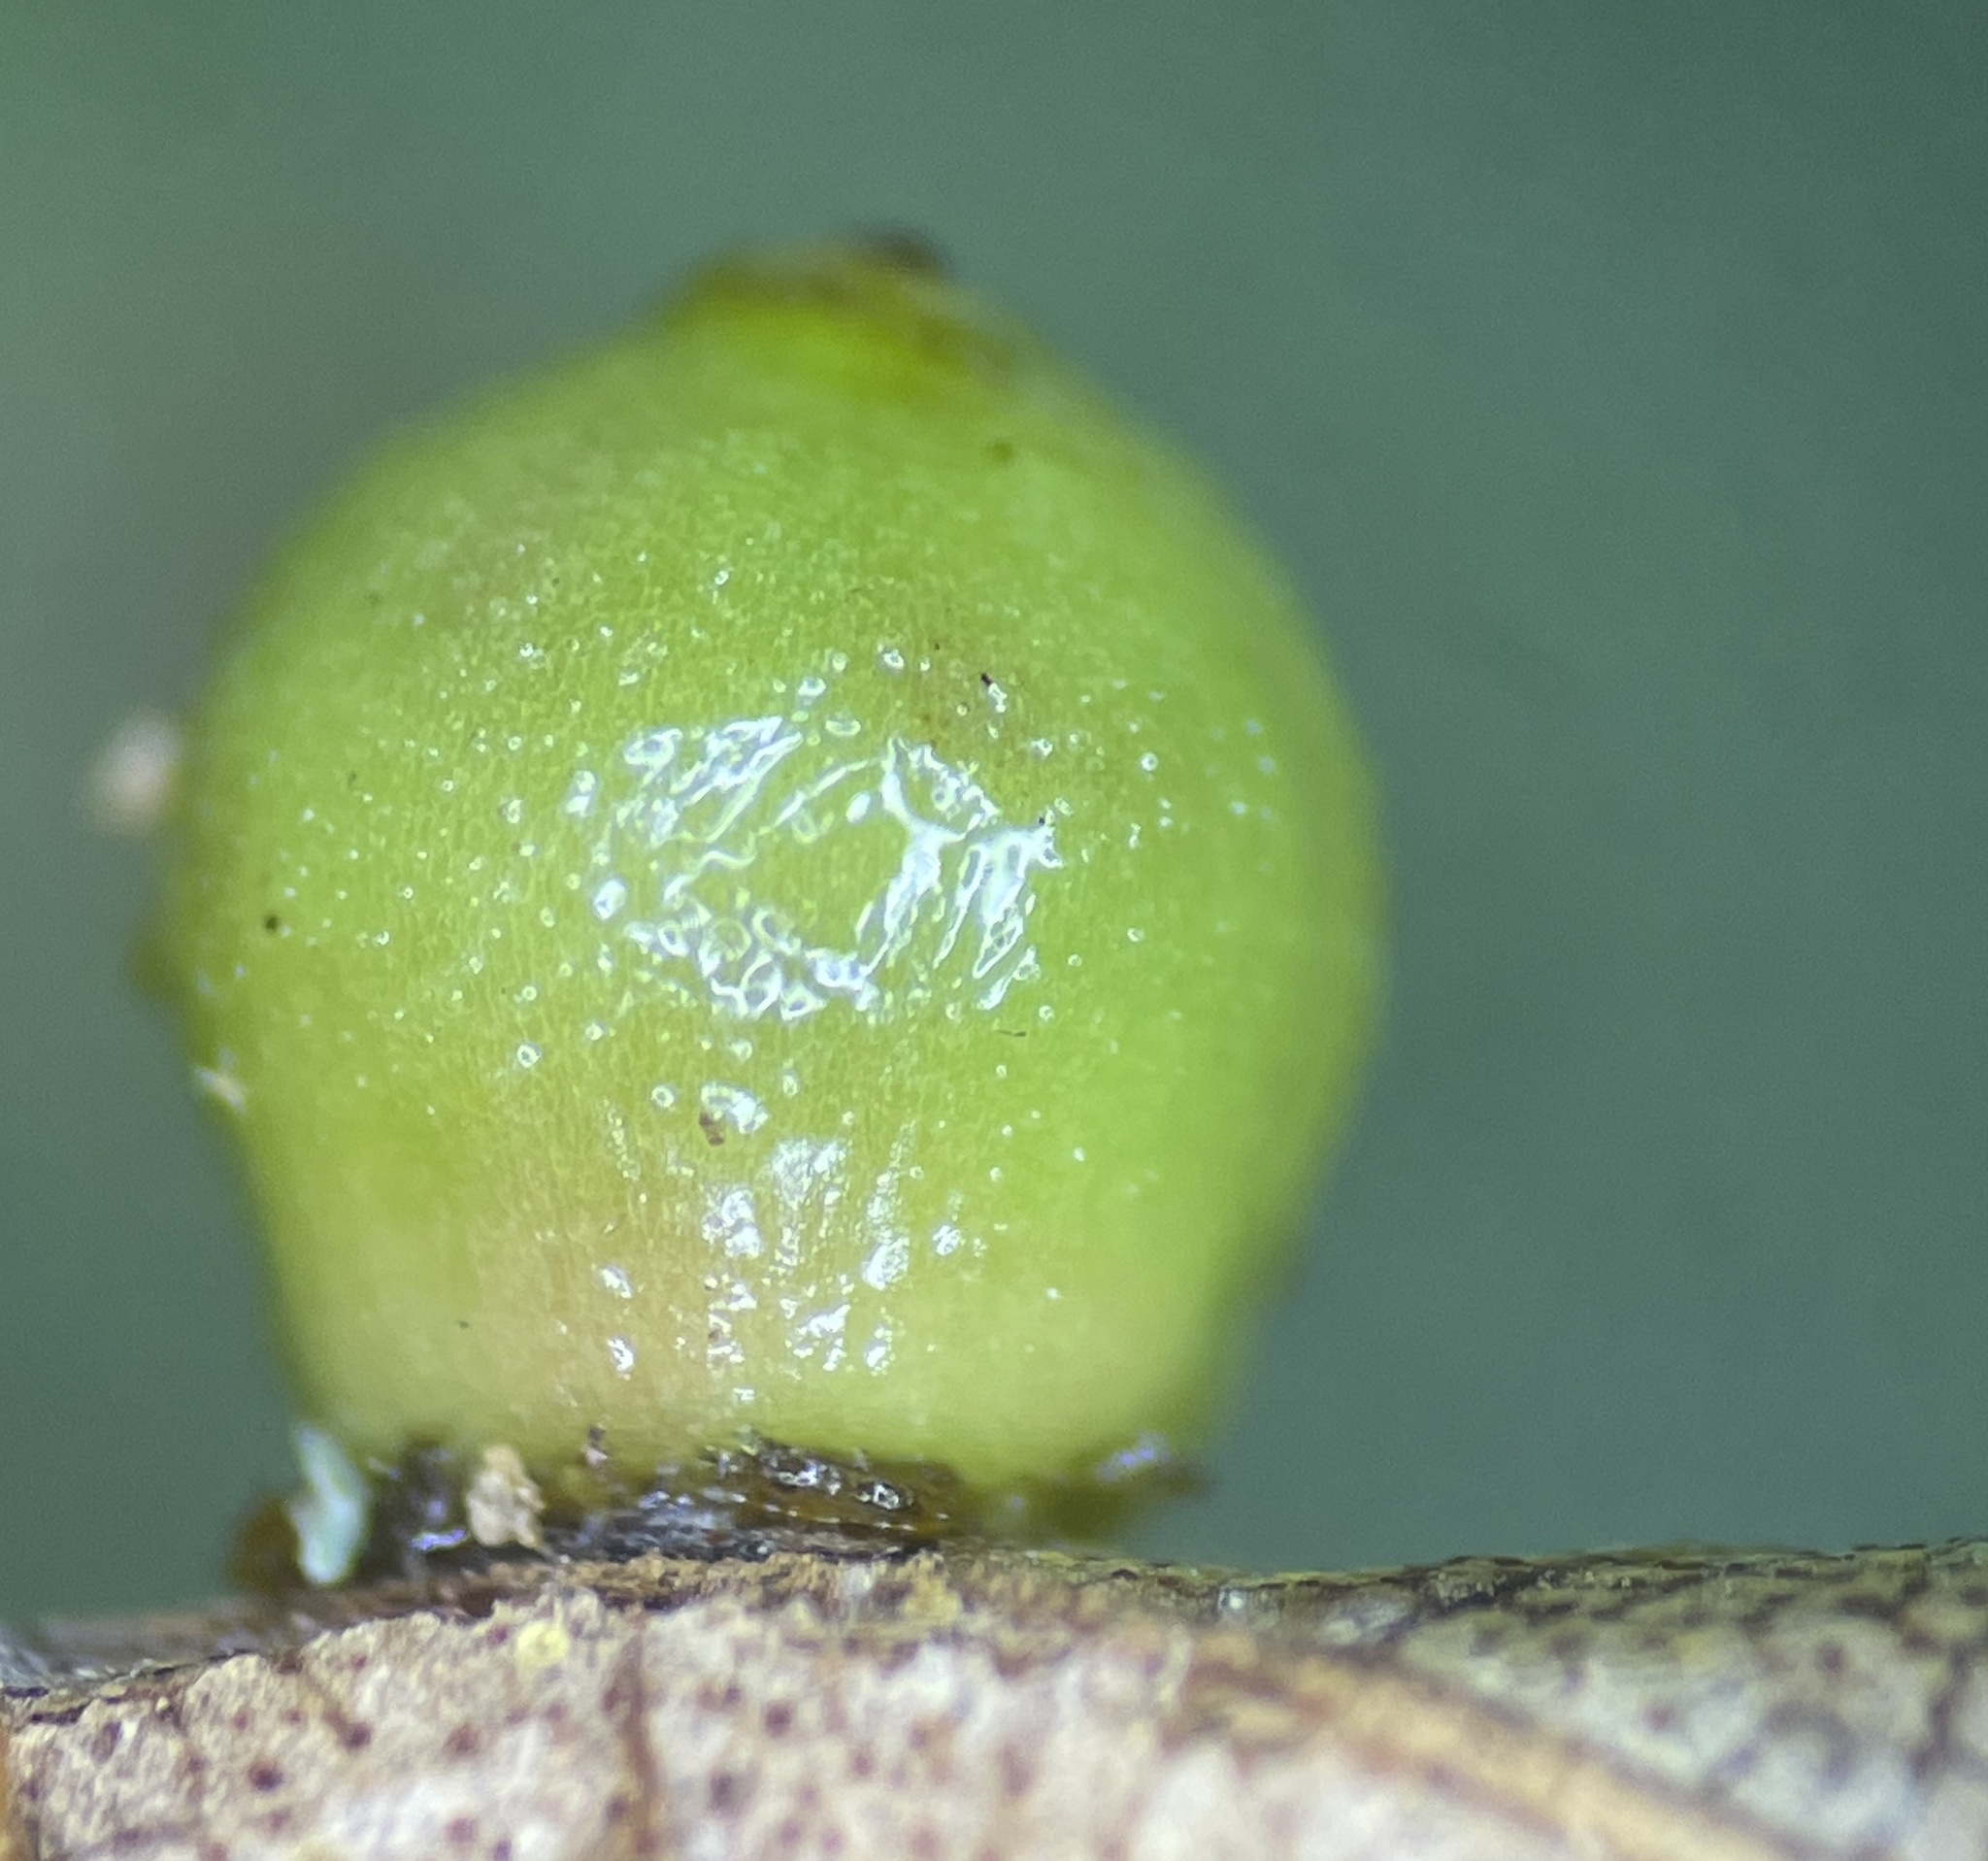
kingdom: Animalia
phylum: Arthropoda
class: Insecta
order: Diptera
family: Cecidomyiidae
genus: Caryomyia
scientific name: Caryomyia caryae
